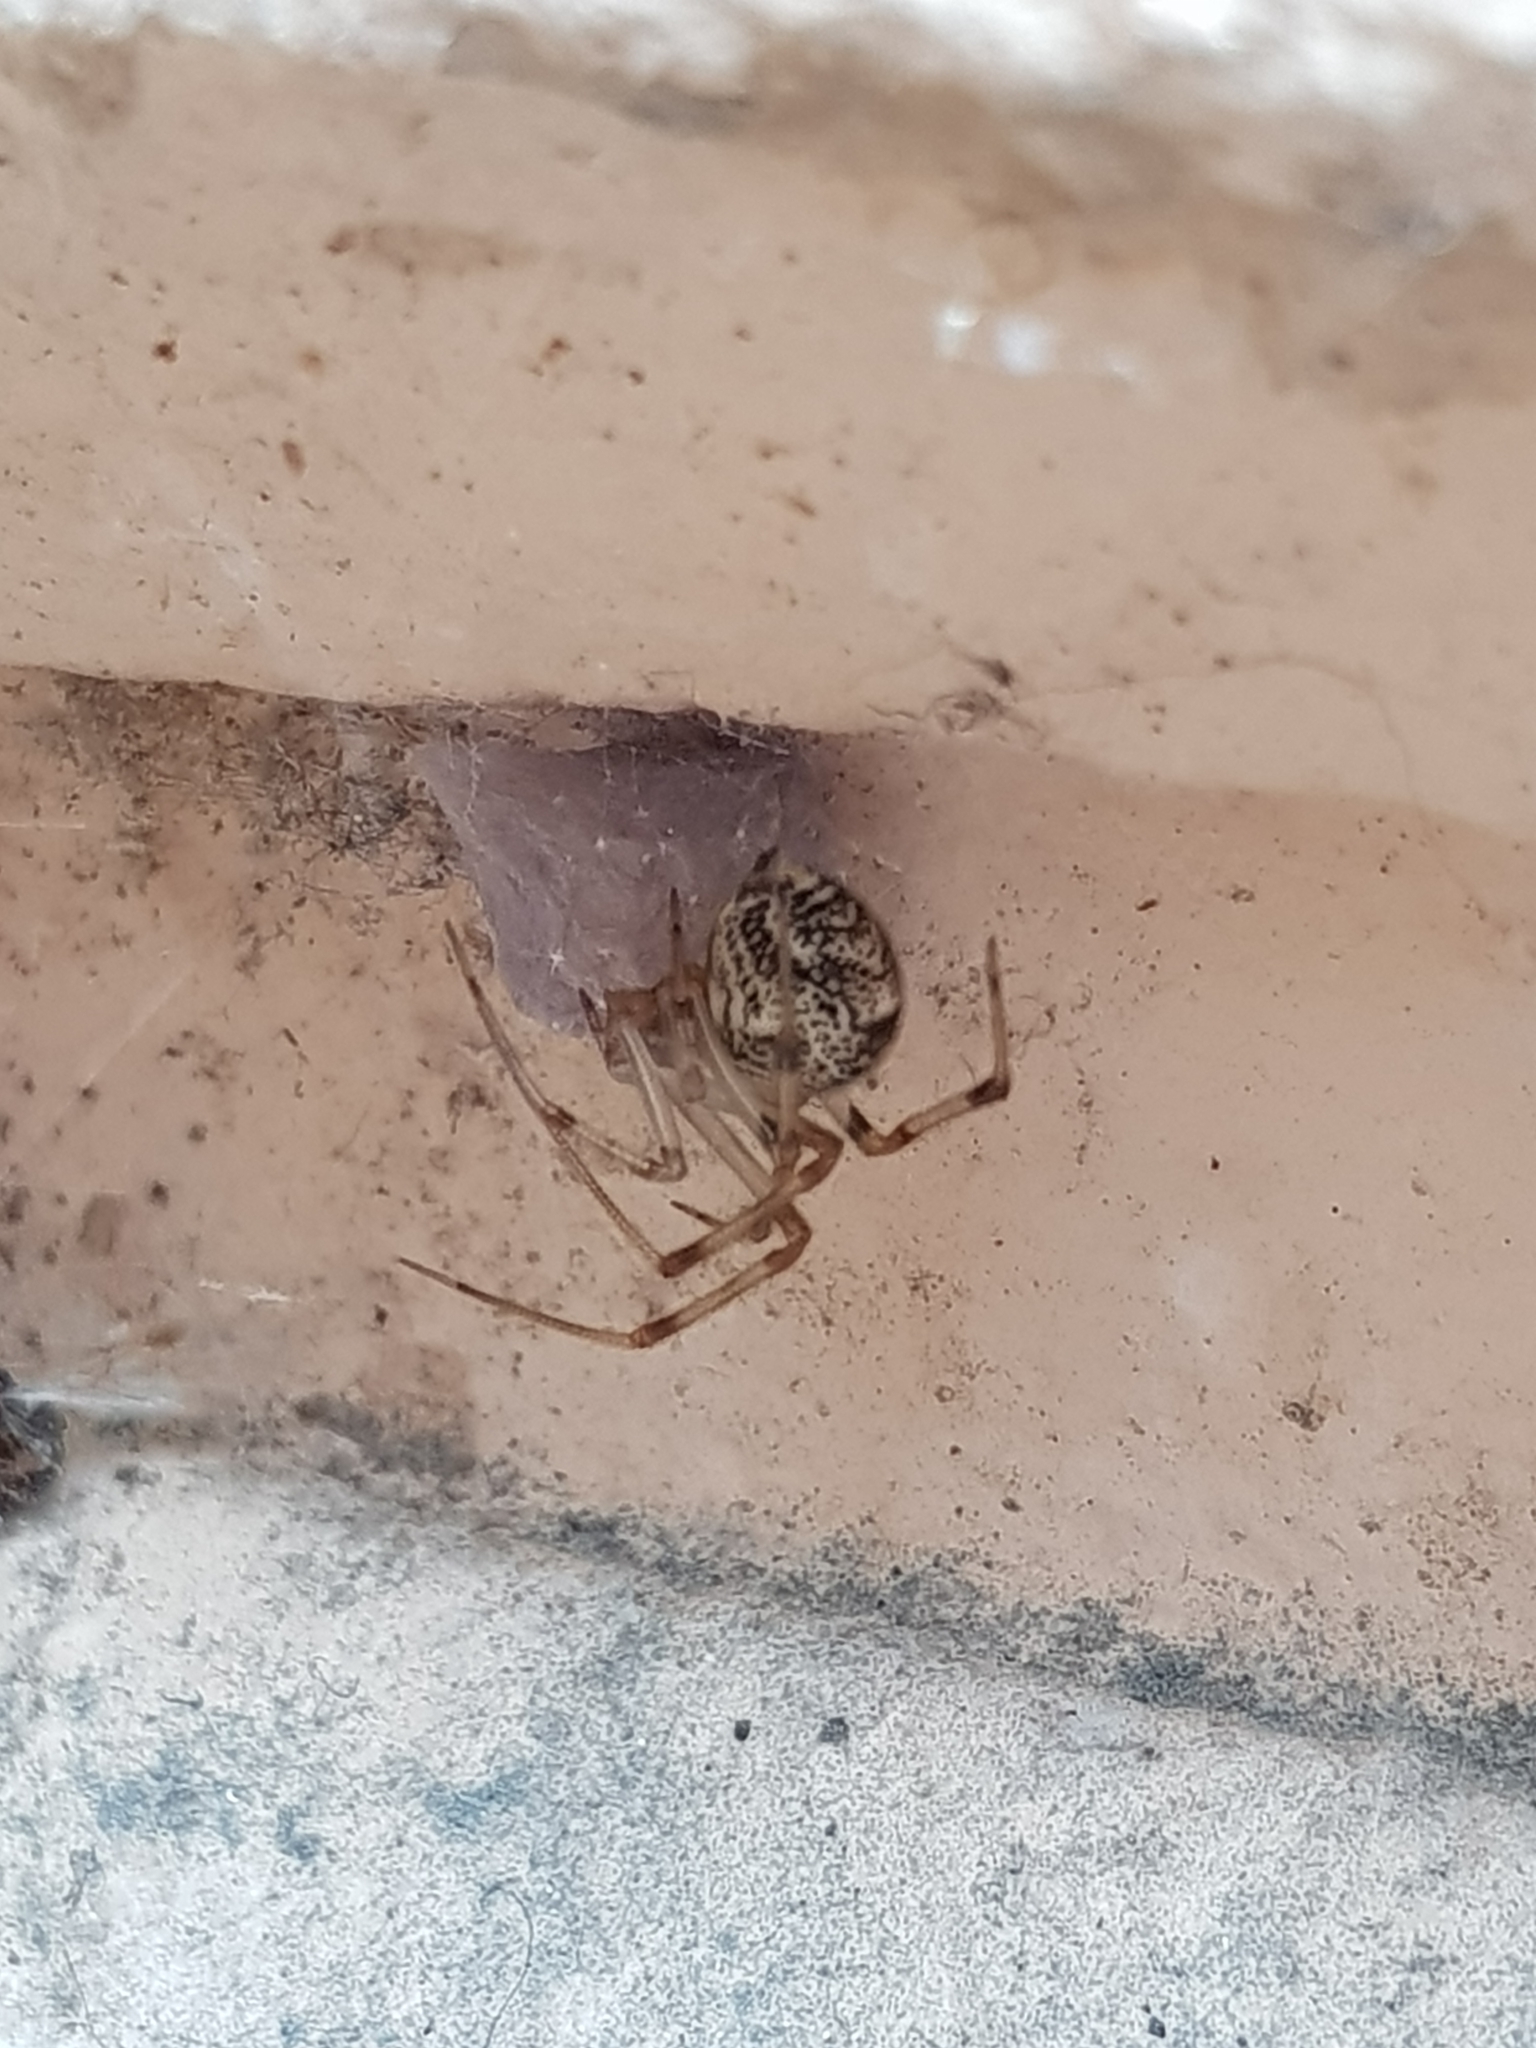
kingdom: Animalia
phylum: Arthropoda
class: Arachnida
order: Araneae
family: Theridiidae
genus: Parasteatoda
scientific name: Parasteatoda tepidariorum
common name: Common house spider
